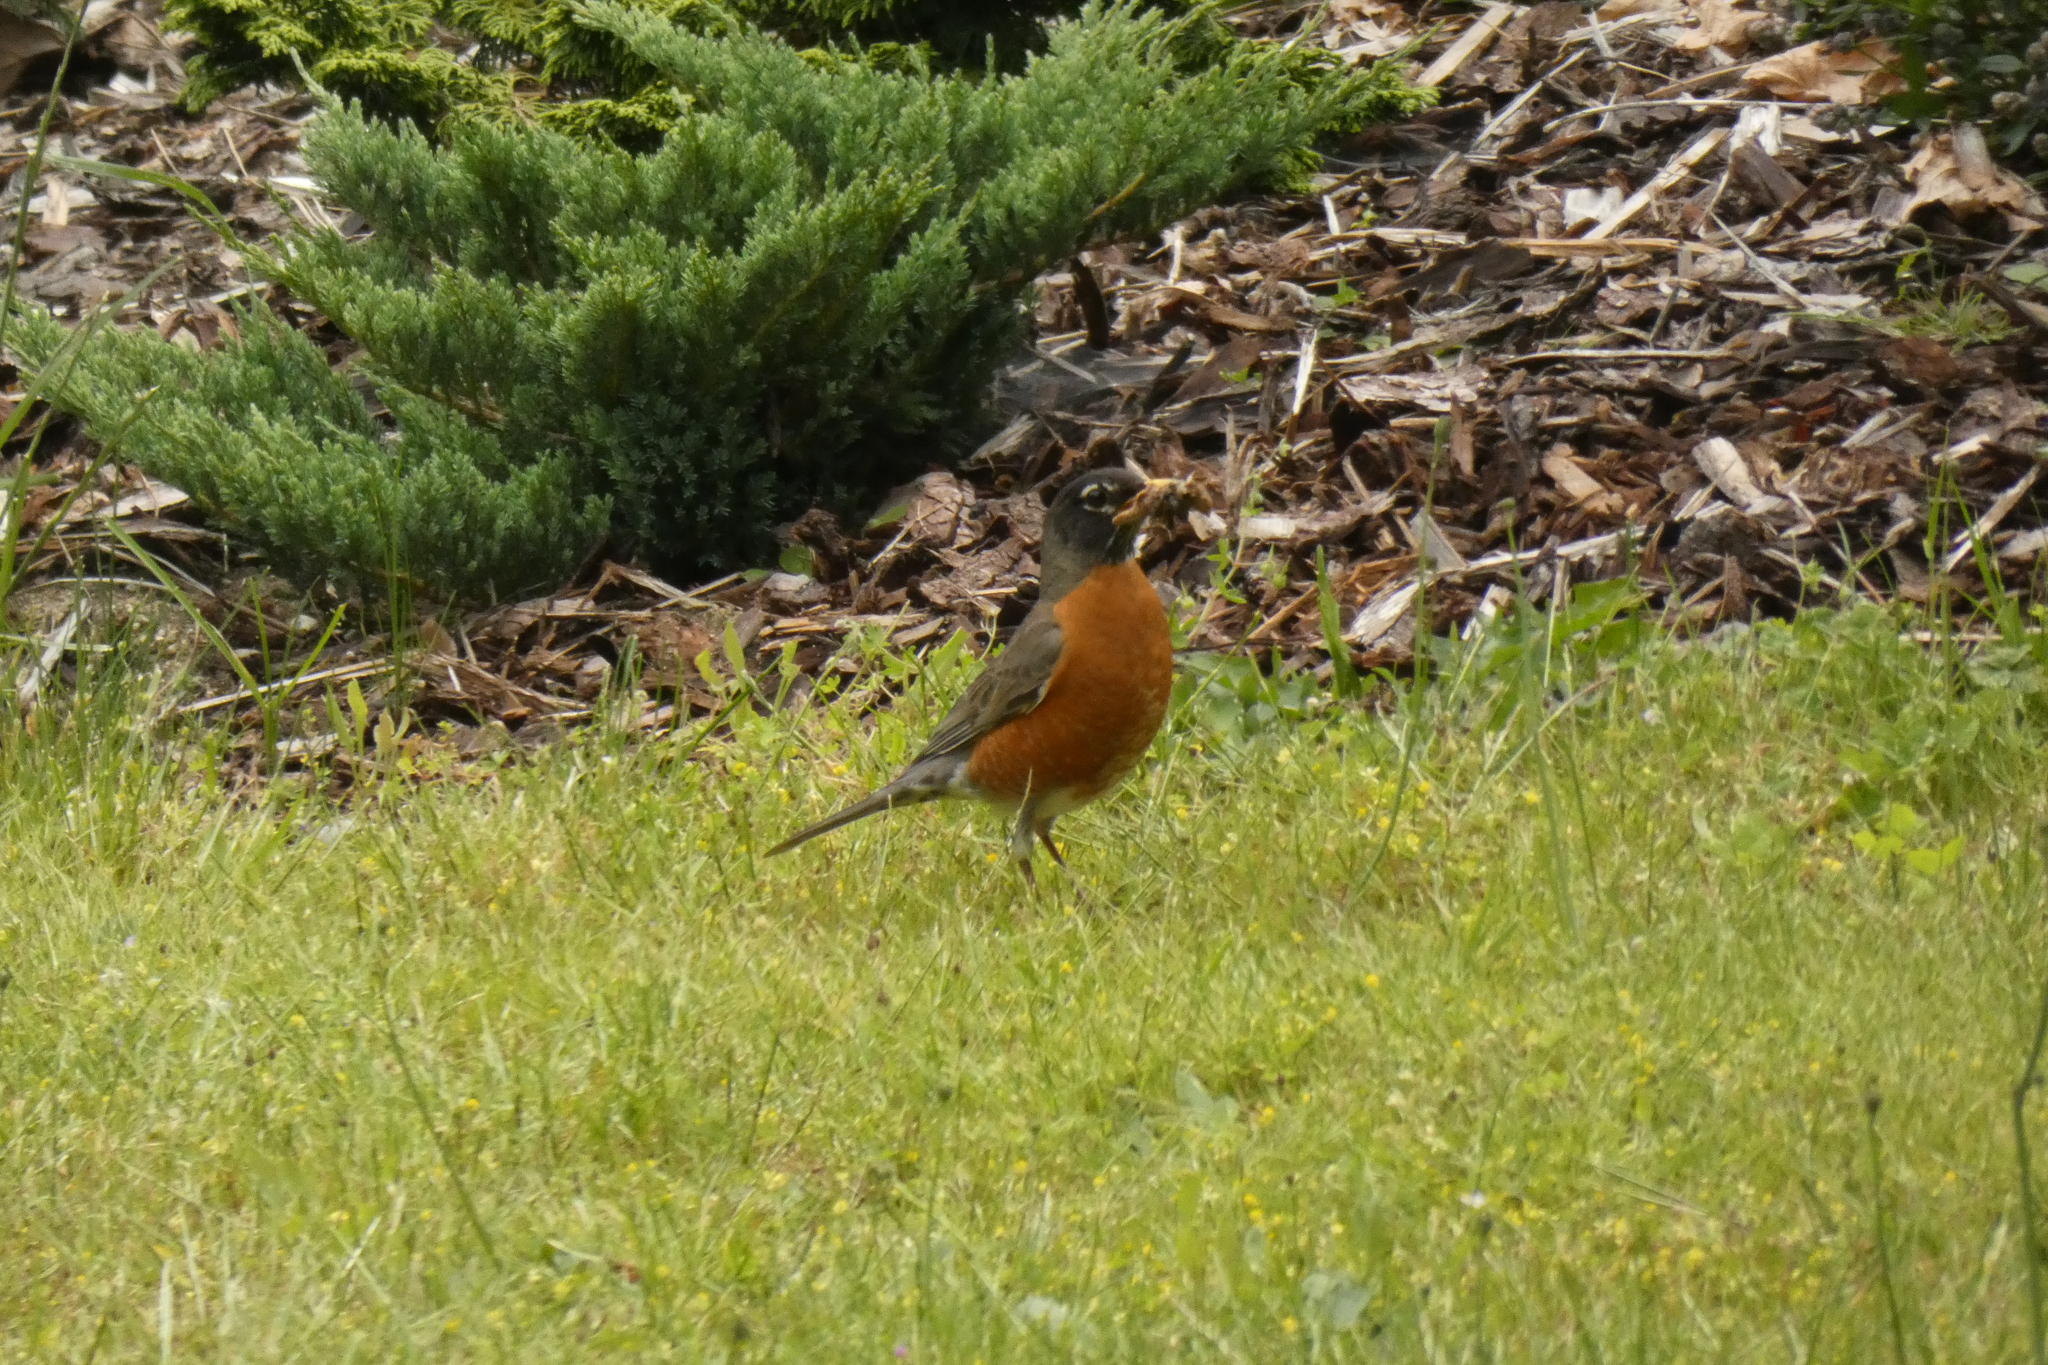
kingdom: Animalia
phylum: Chordata
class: Aves
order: Passeriformes
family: Turdidae
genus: Turdus
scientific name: Turdus migratorius
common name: American robin
